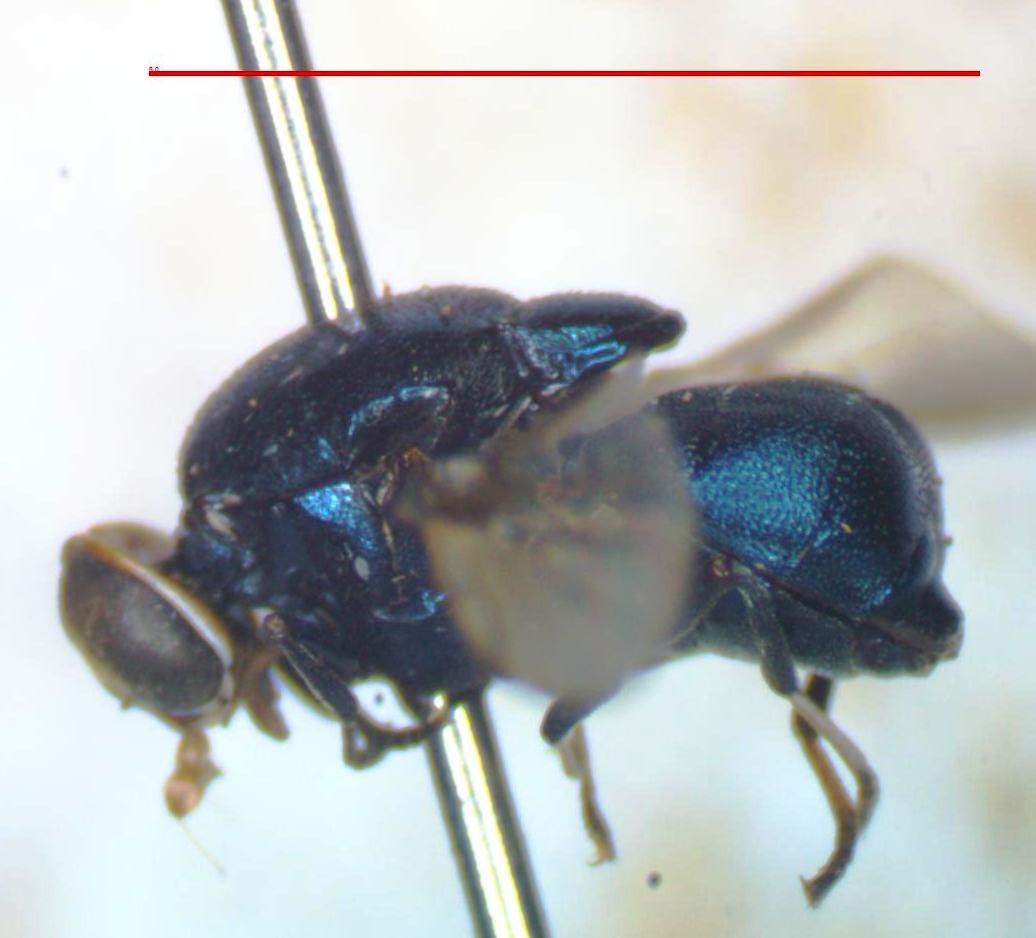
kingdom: Animalia
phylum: Arthropoda
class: Insecta
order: Diptera
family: Stratiomyidae
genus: Panacris
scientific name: Panacris microdonta
